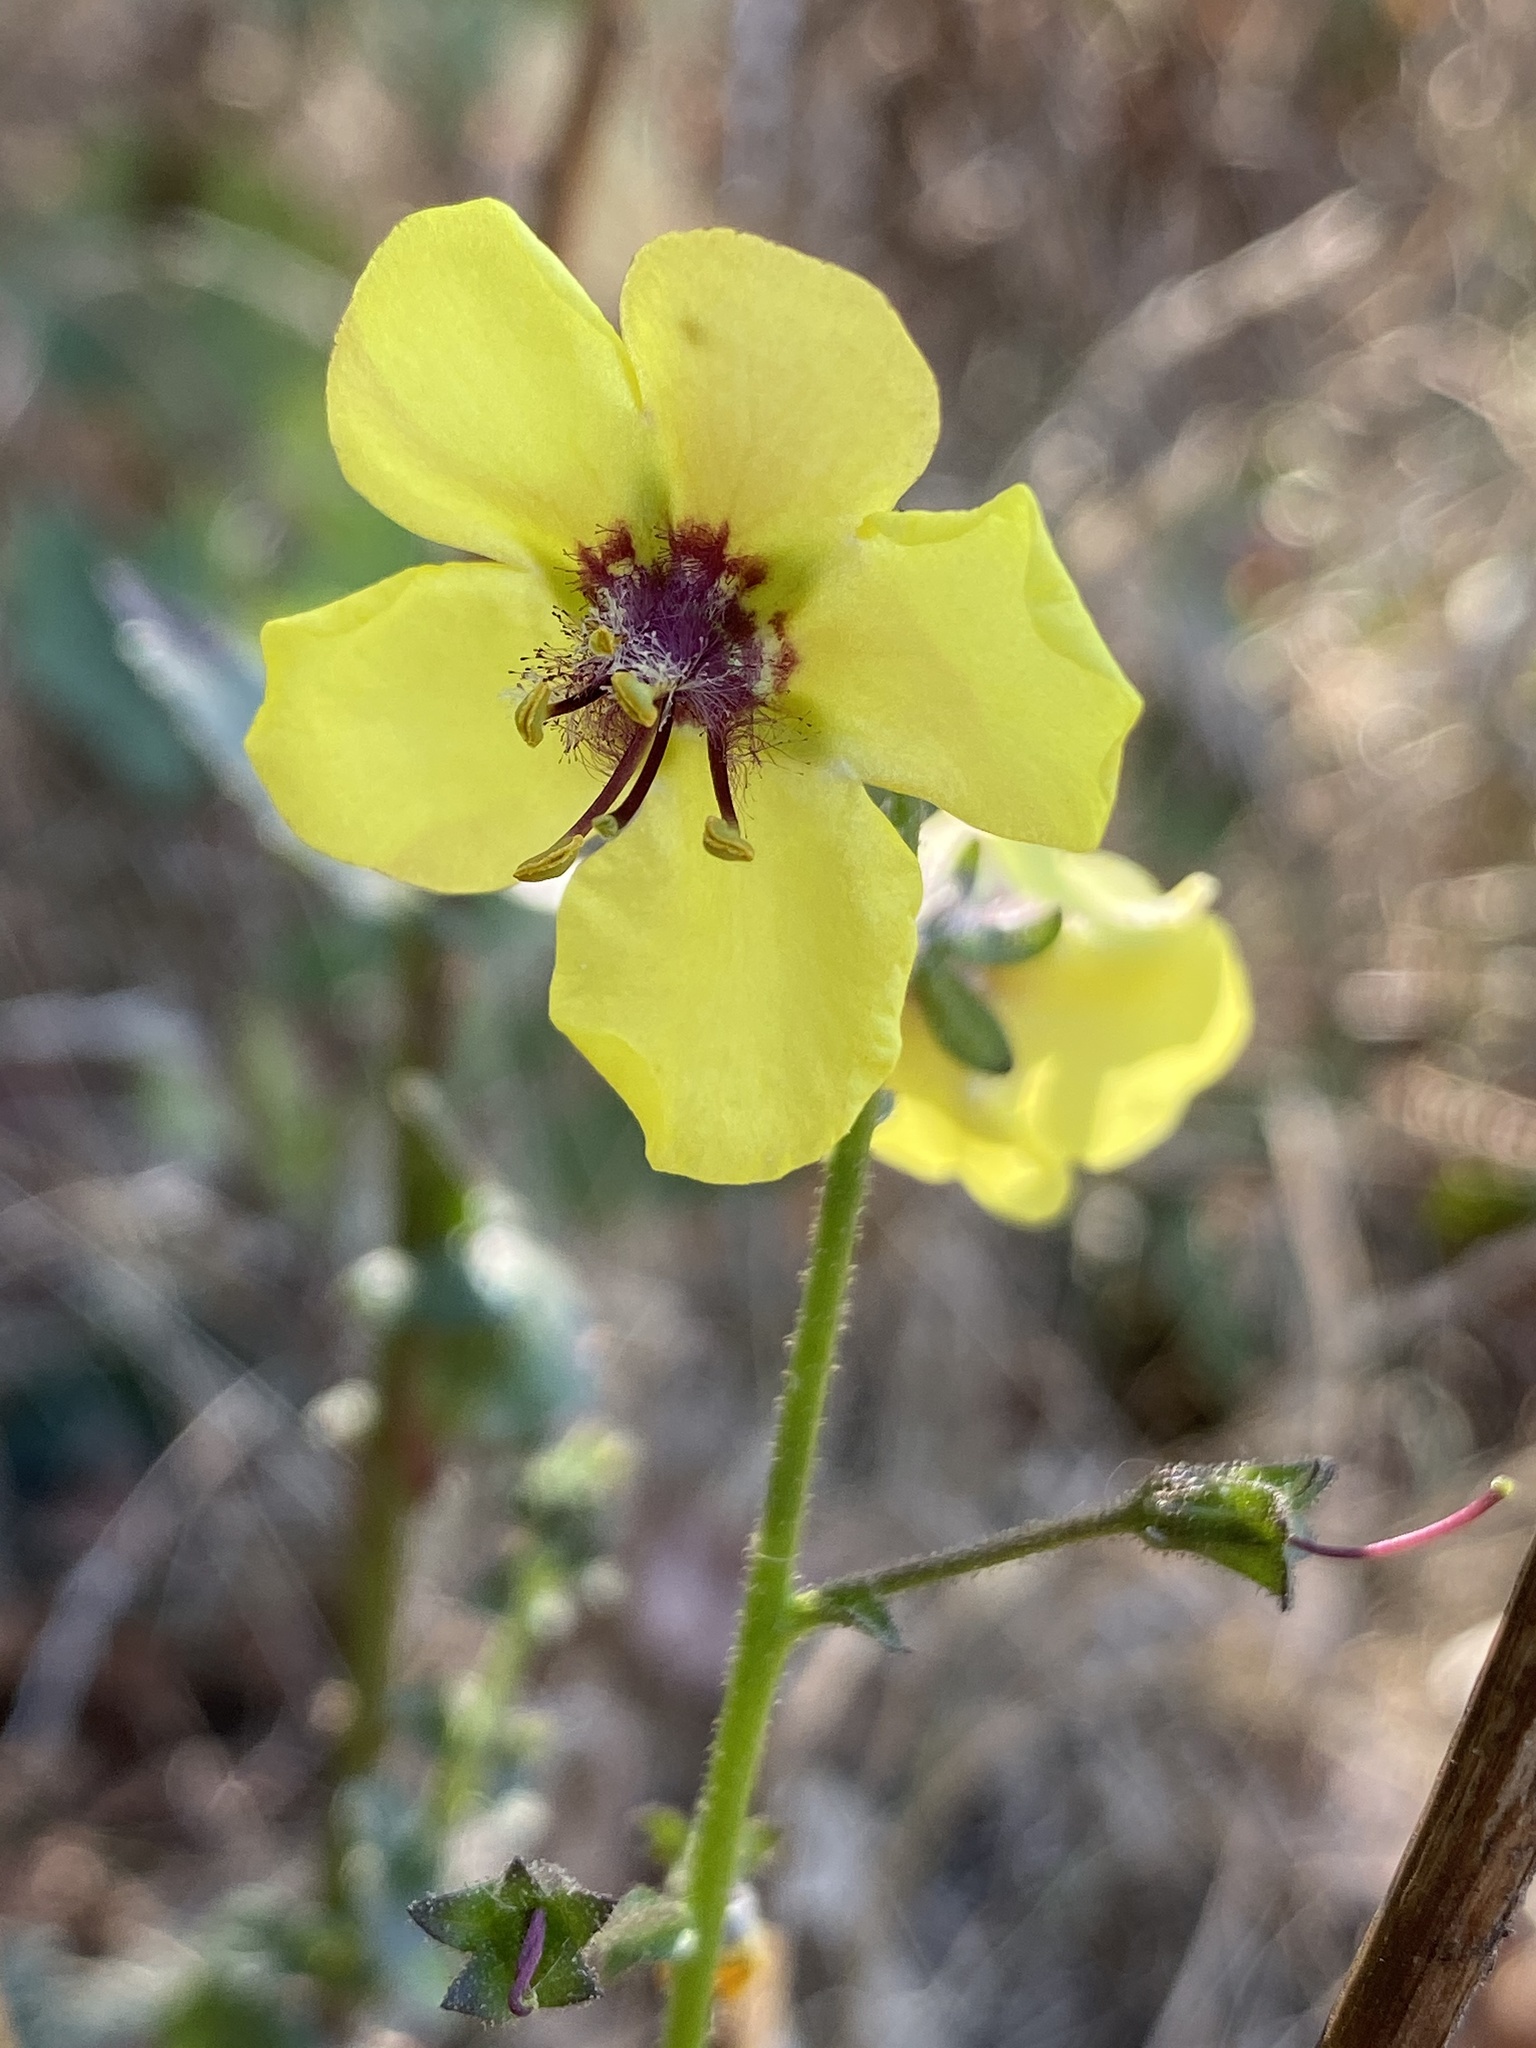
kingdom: Plantae
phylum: Tracheophyta
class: Magnoliopsida
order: Lamiales
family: Scrophulariaceae
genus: Verbascum
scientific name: Verbascum blattaria
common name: Moth mullein
